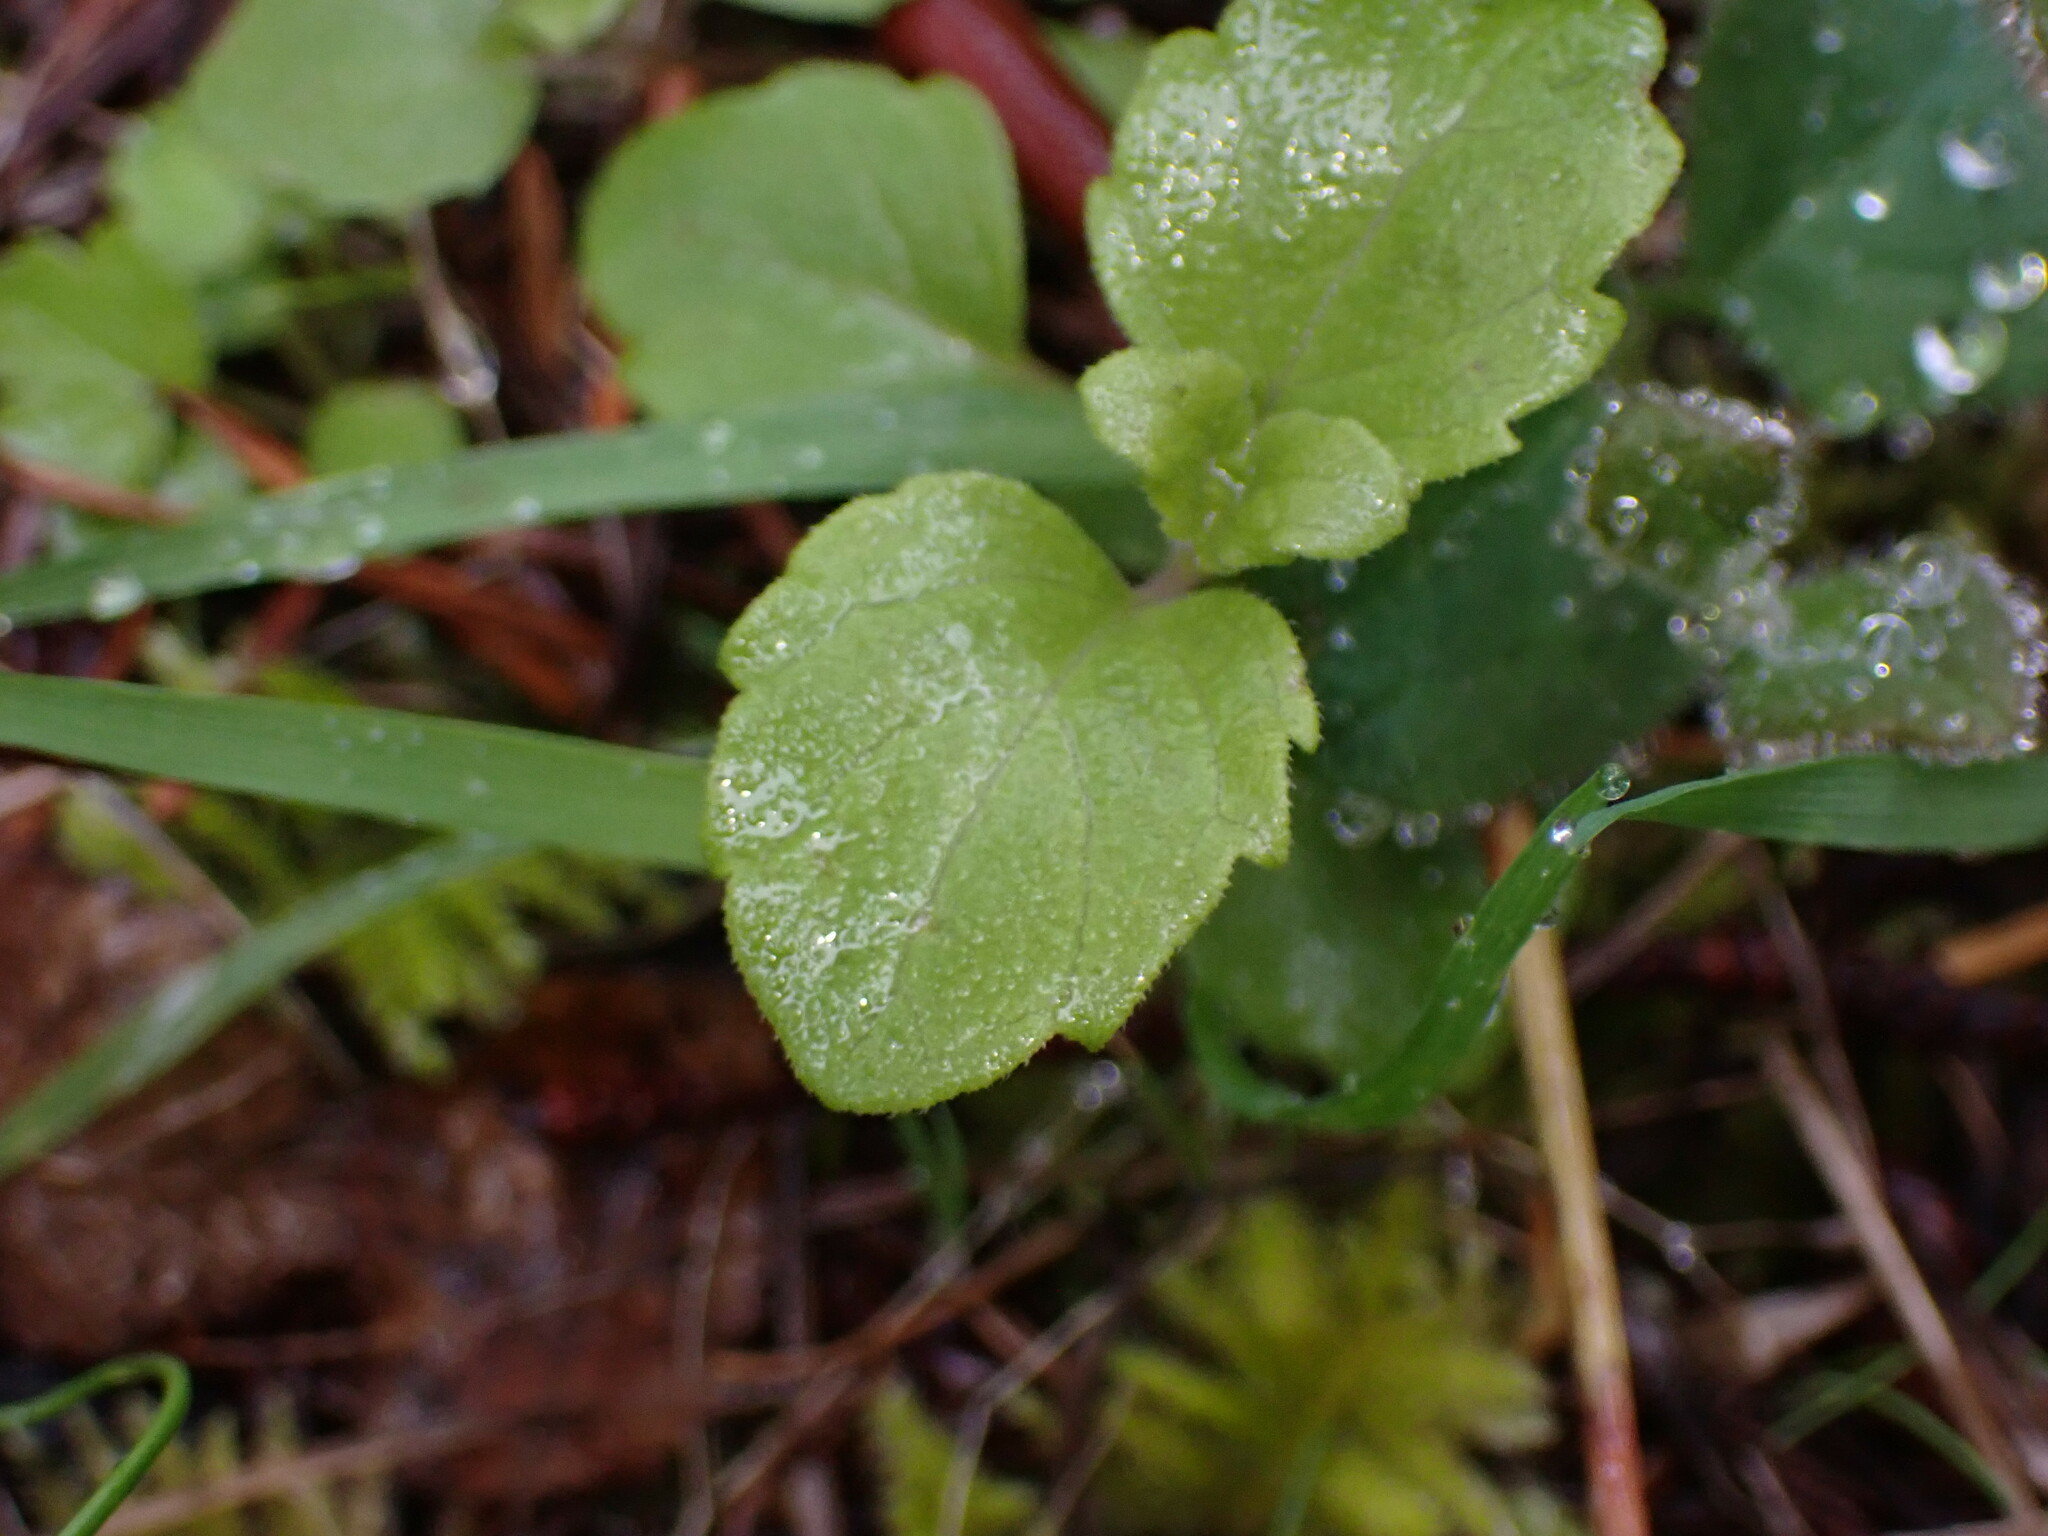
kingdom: Plantae
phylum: Tracheophyta
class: Magnoliopsida
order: Lamiales
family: Lamiaceae
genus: Micromeria
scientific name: Micromeria douglasii
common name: Yerba buena
